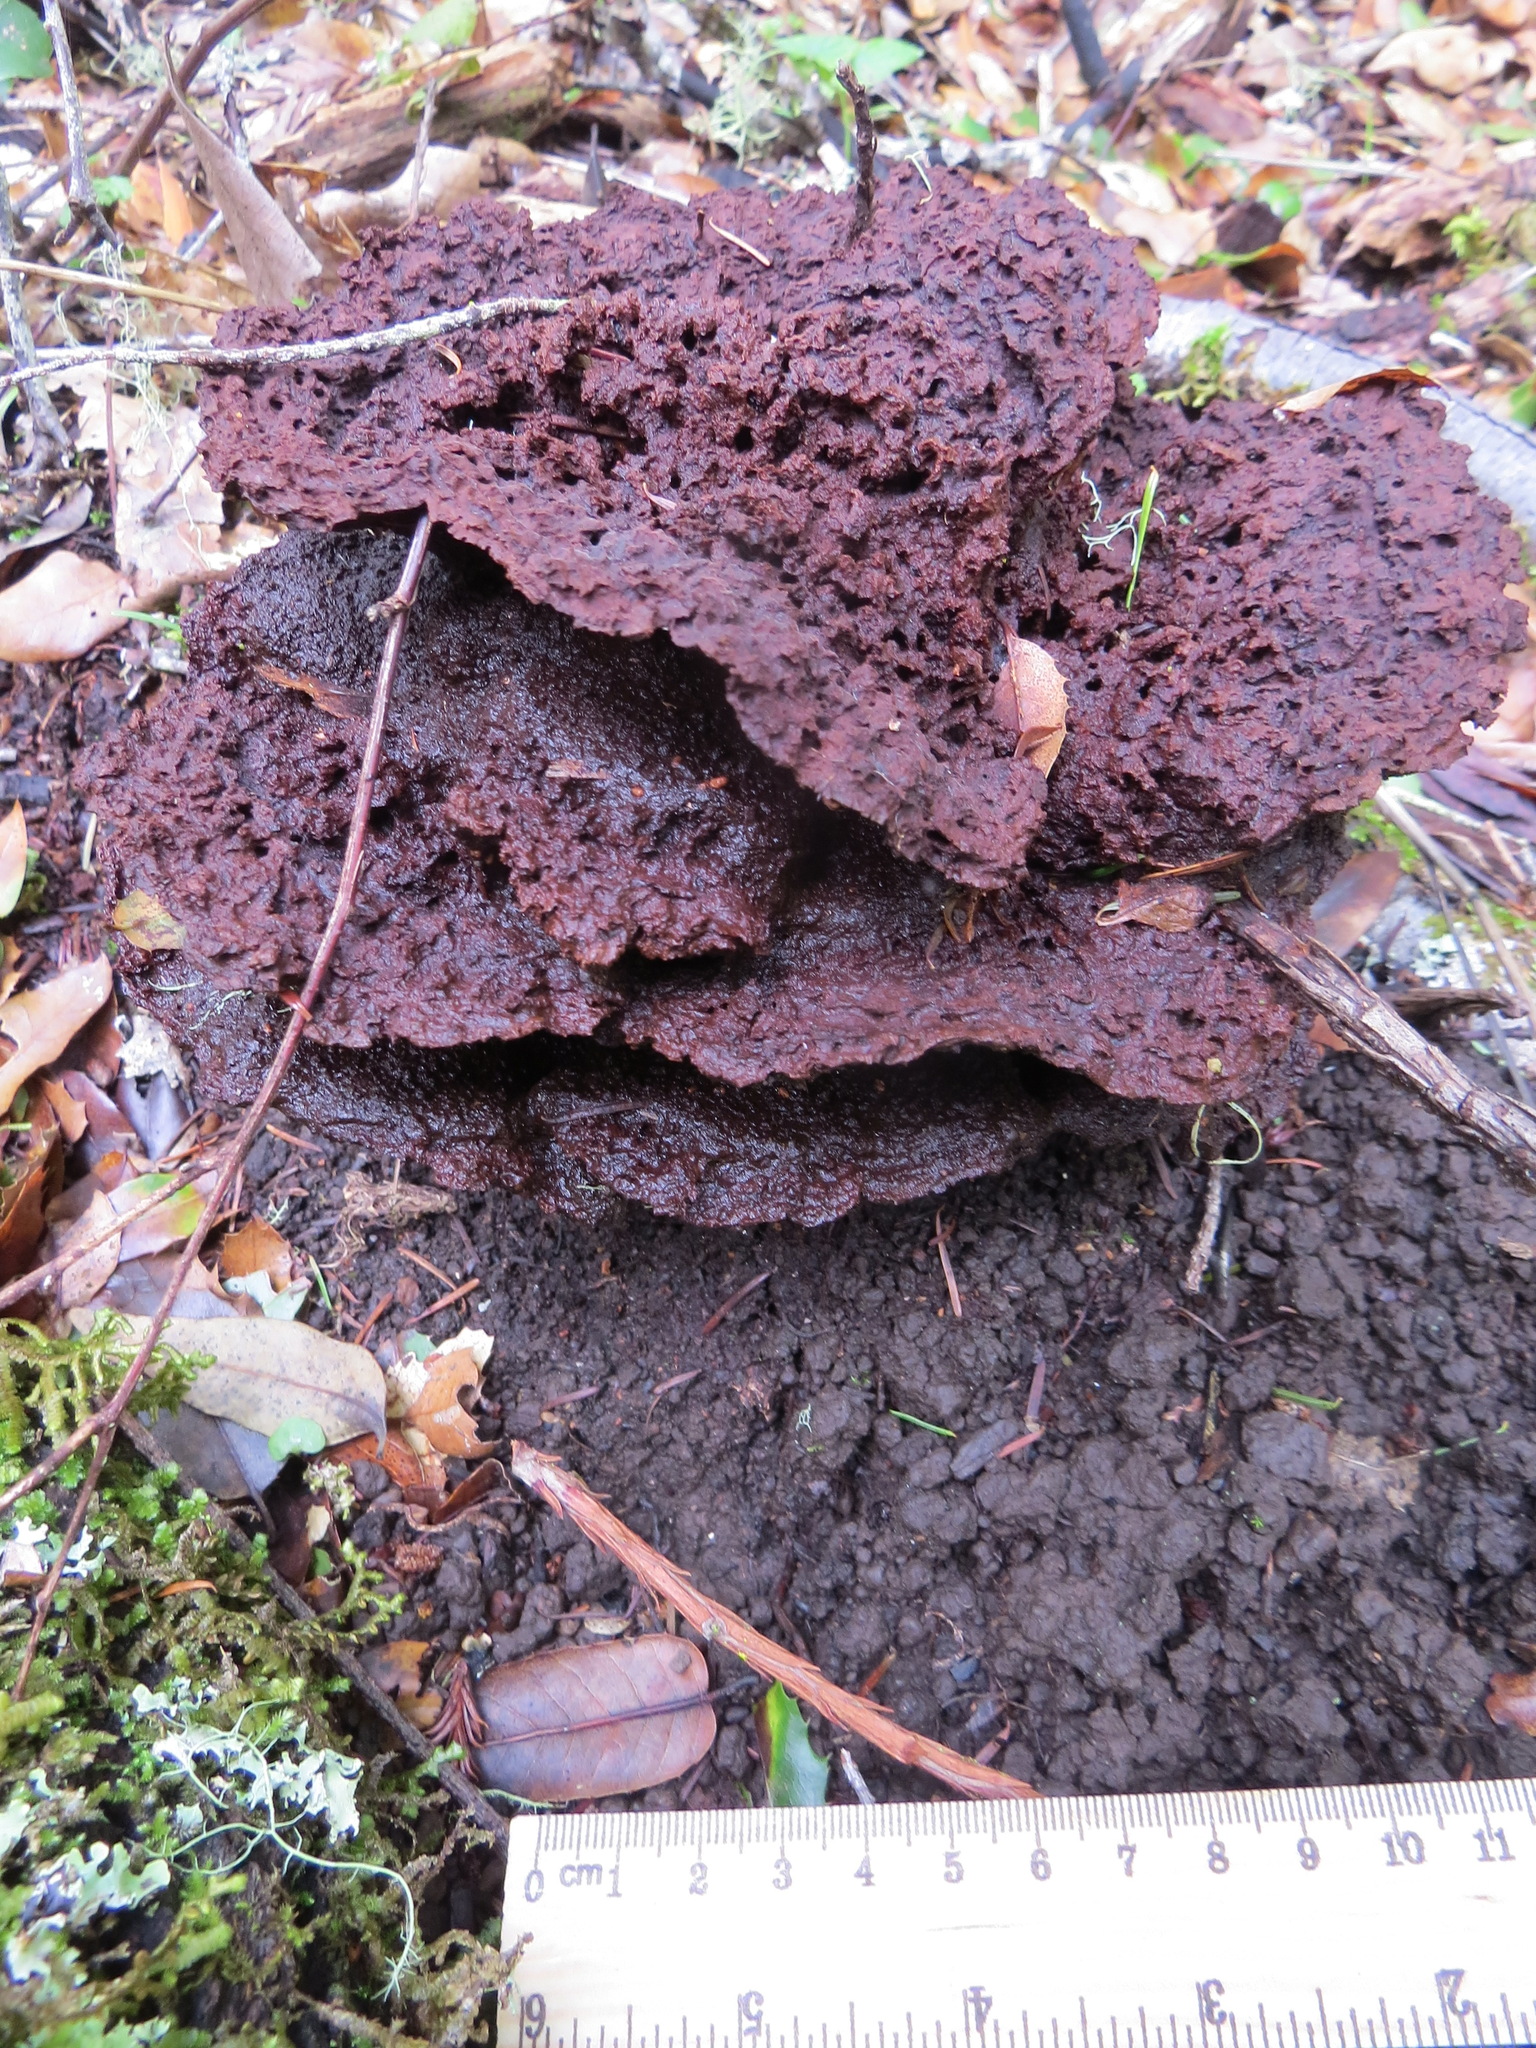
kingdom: Fungi
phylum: Basidiomycota
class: Agaricomycetes
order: Polyporales
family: Laetiporaceae
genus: Phaeolus
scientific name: Phaeolus schweinitzii
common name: Dyer's mazegill
